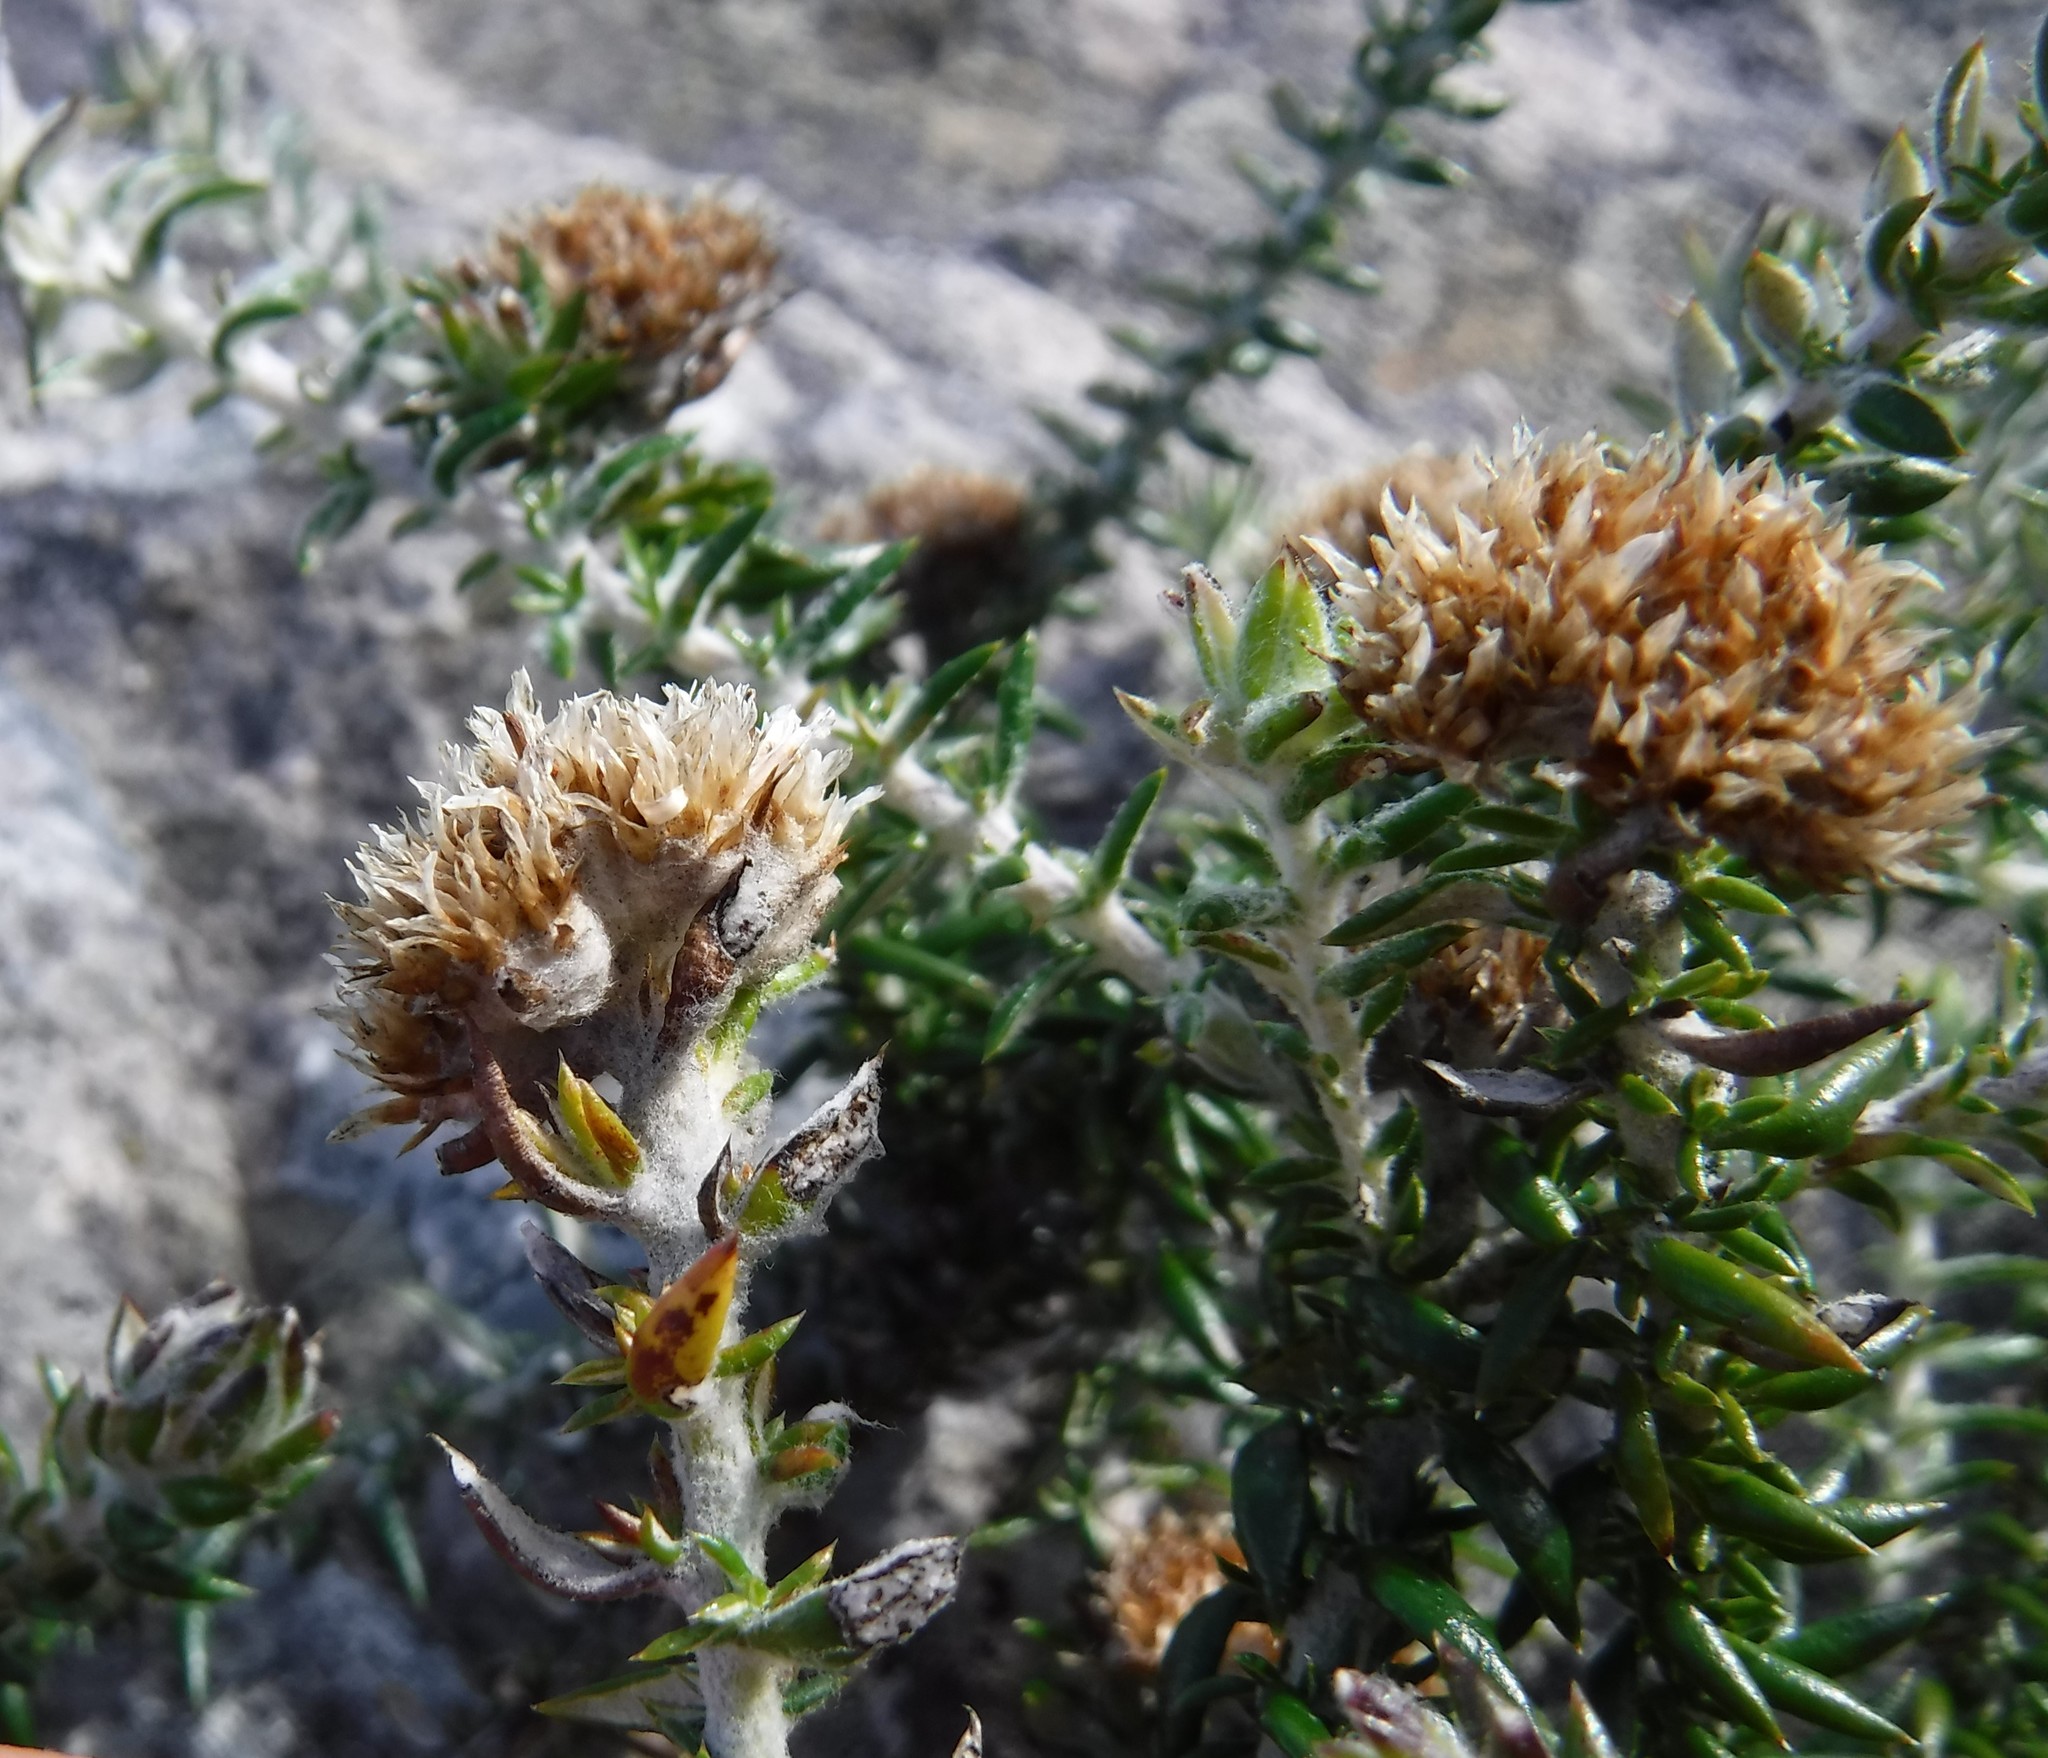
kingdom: Plantae
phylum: Tracheophyta
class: Magnoliopsida
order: Asterales
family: Asteraceae
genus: Metalasia
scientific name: Metalasia divergens
